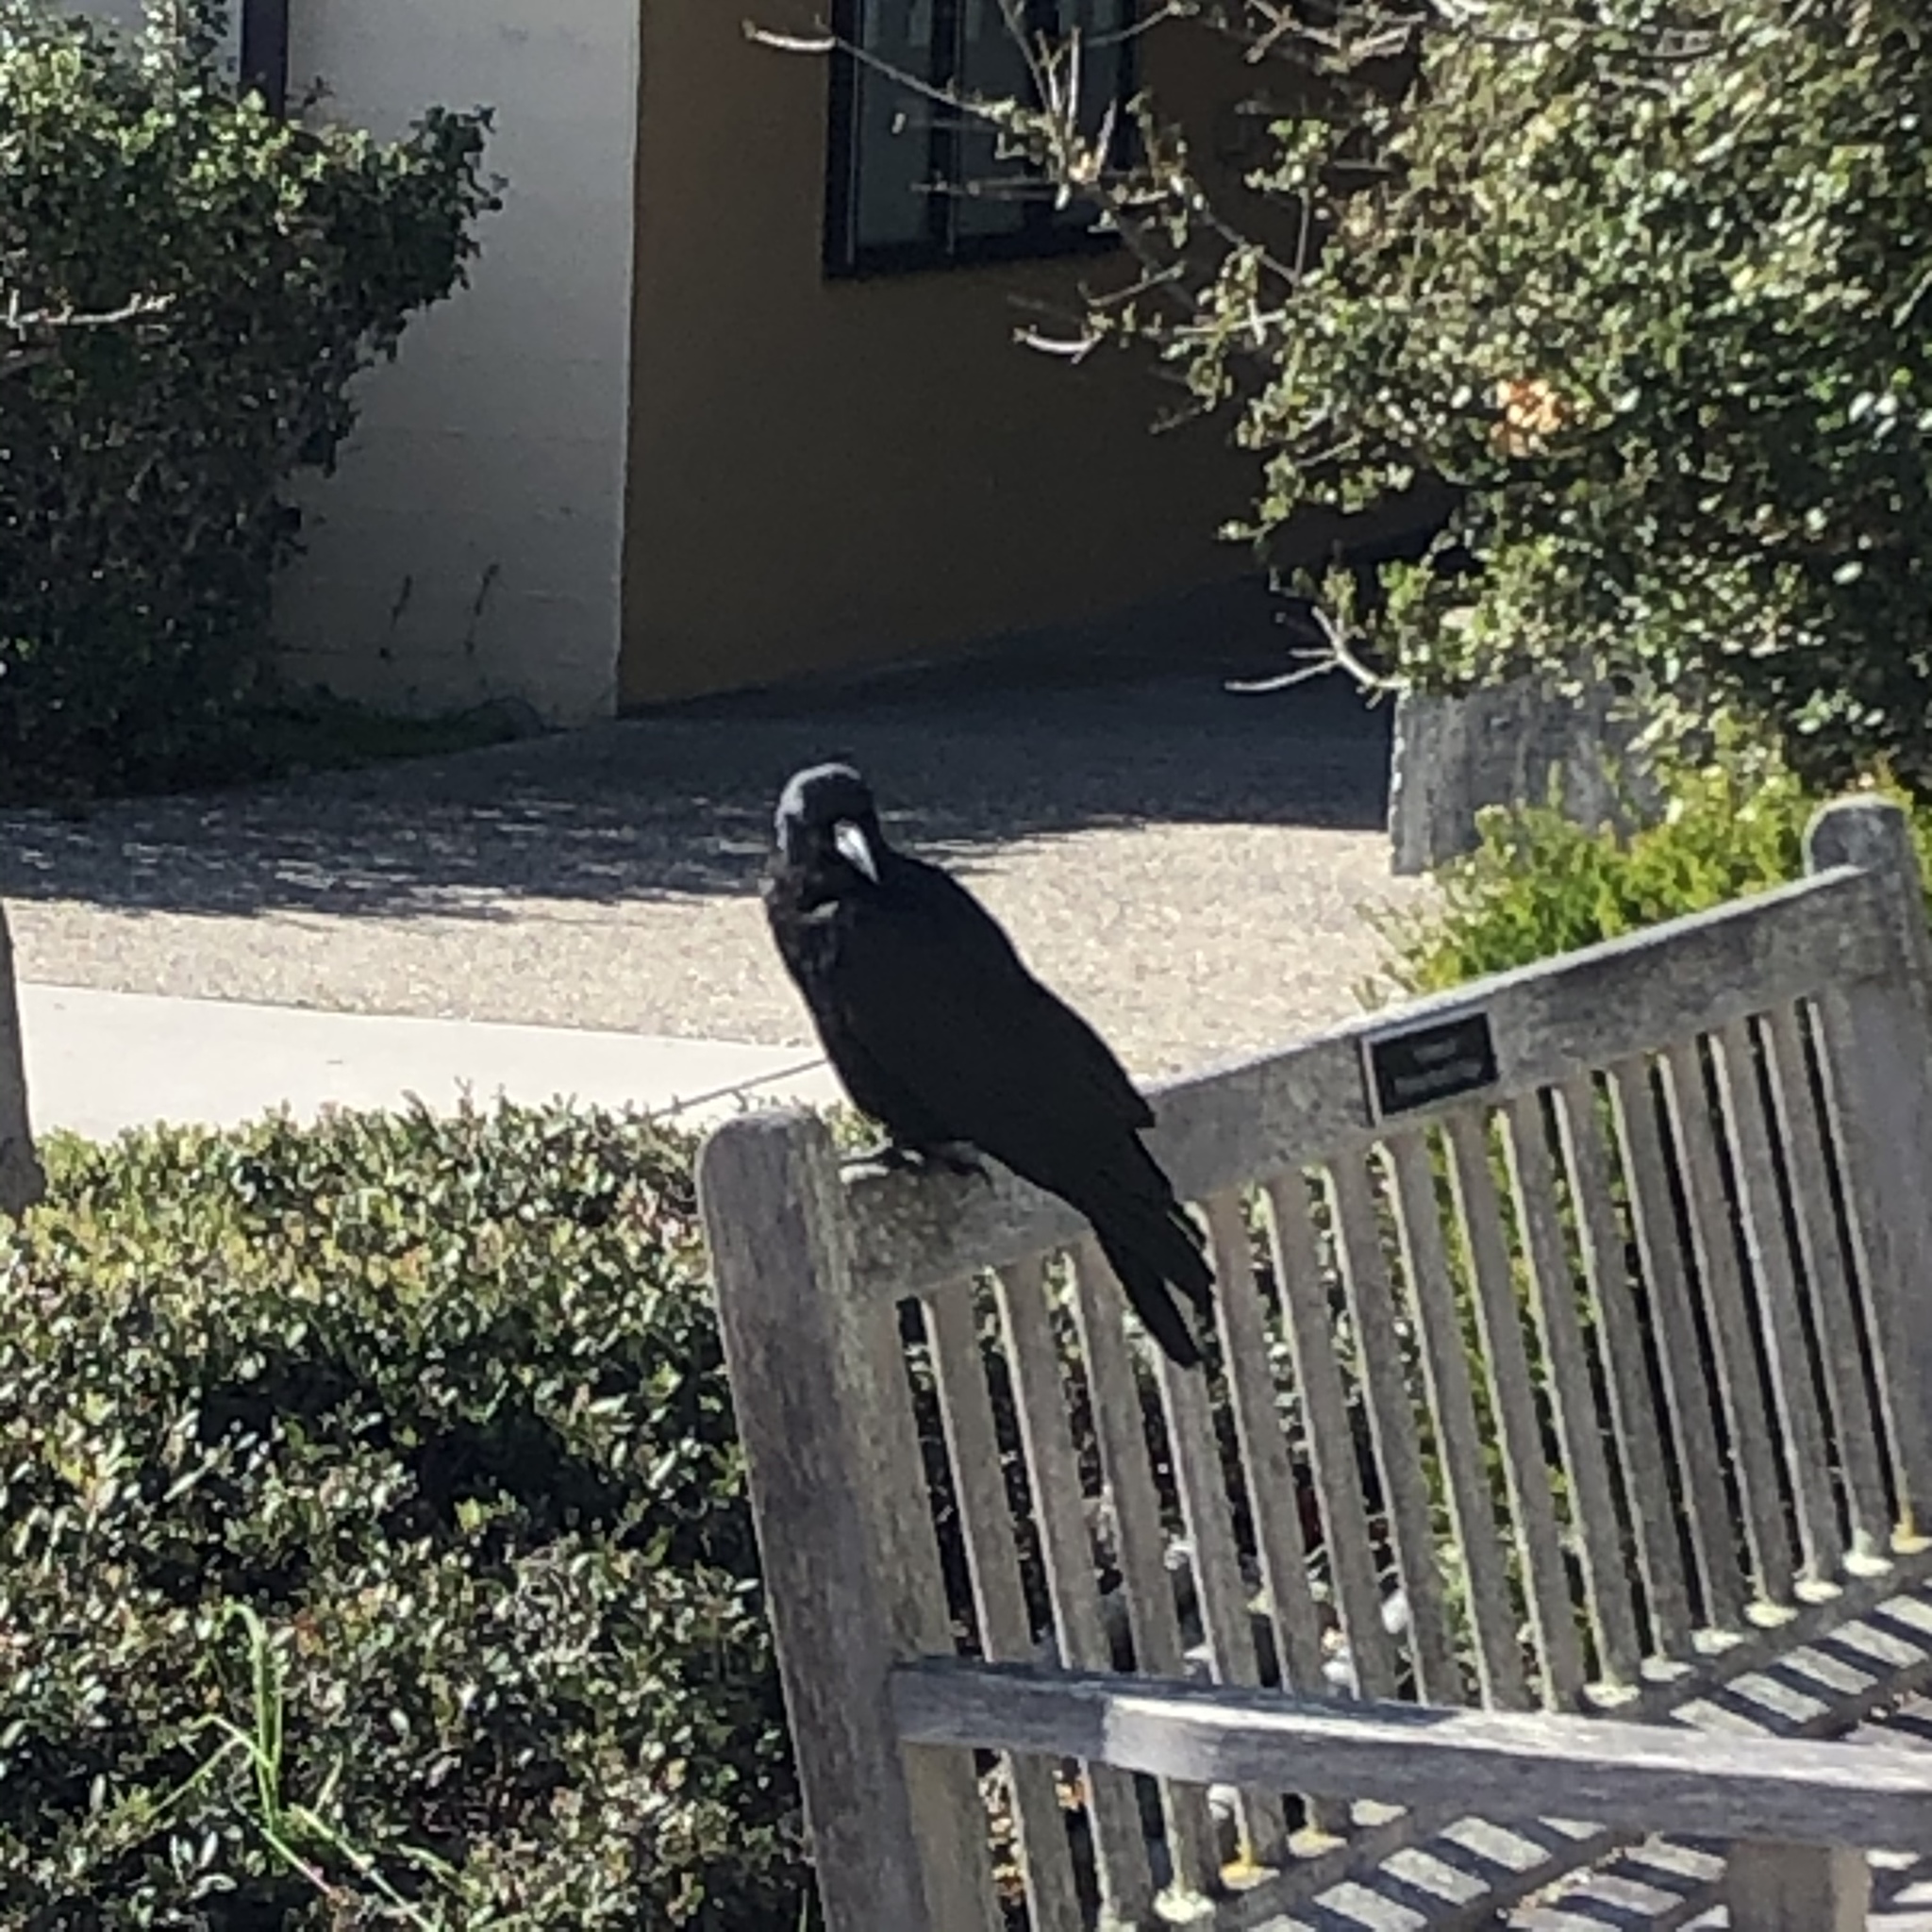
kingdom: Animalia
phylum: Chordata
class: Aves
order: Passeriformes
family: Corvidae
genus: Corvus
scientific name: Corvus corax
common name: Common raven
